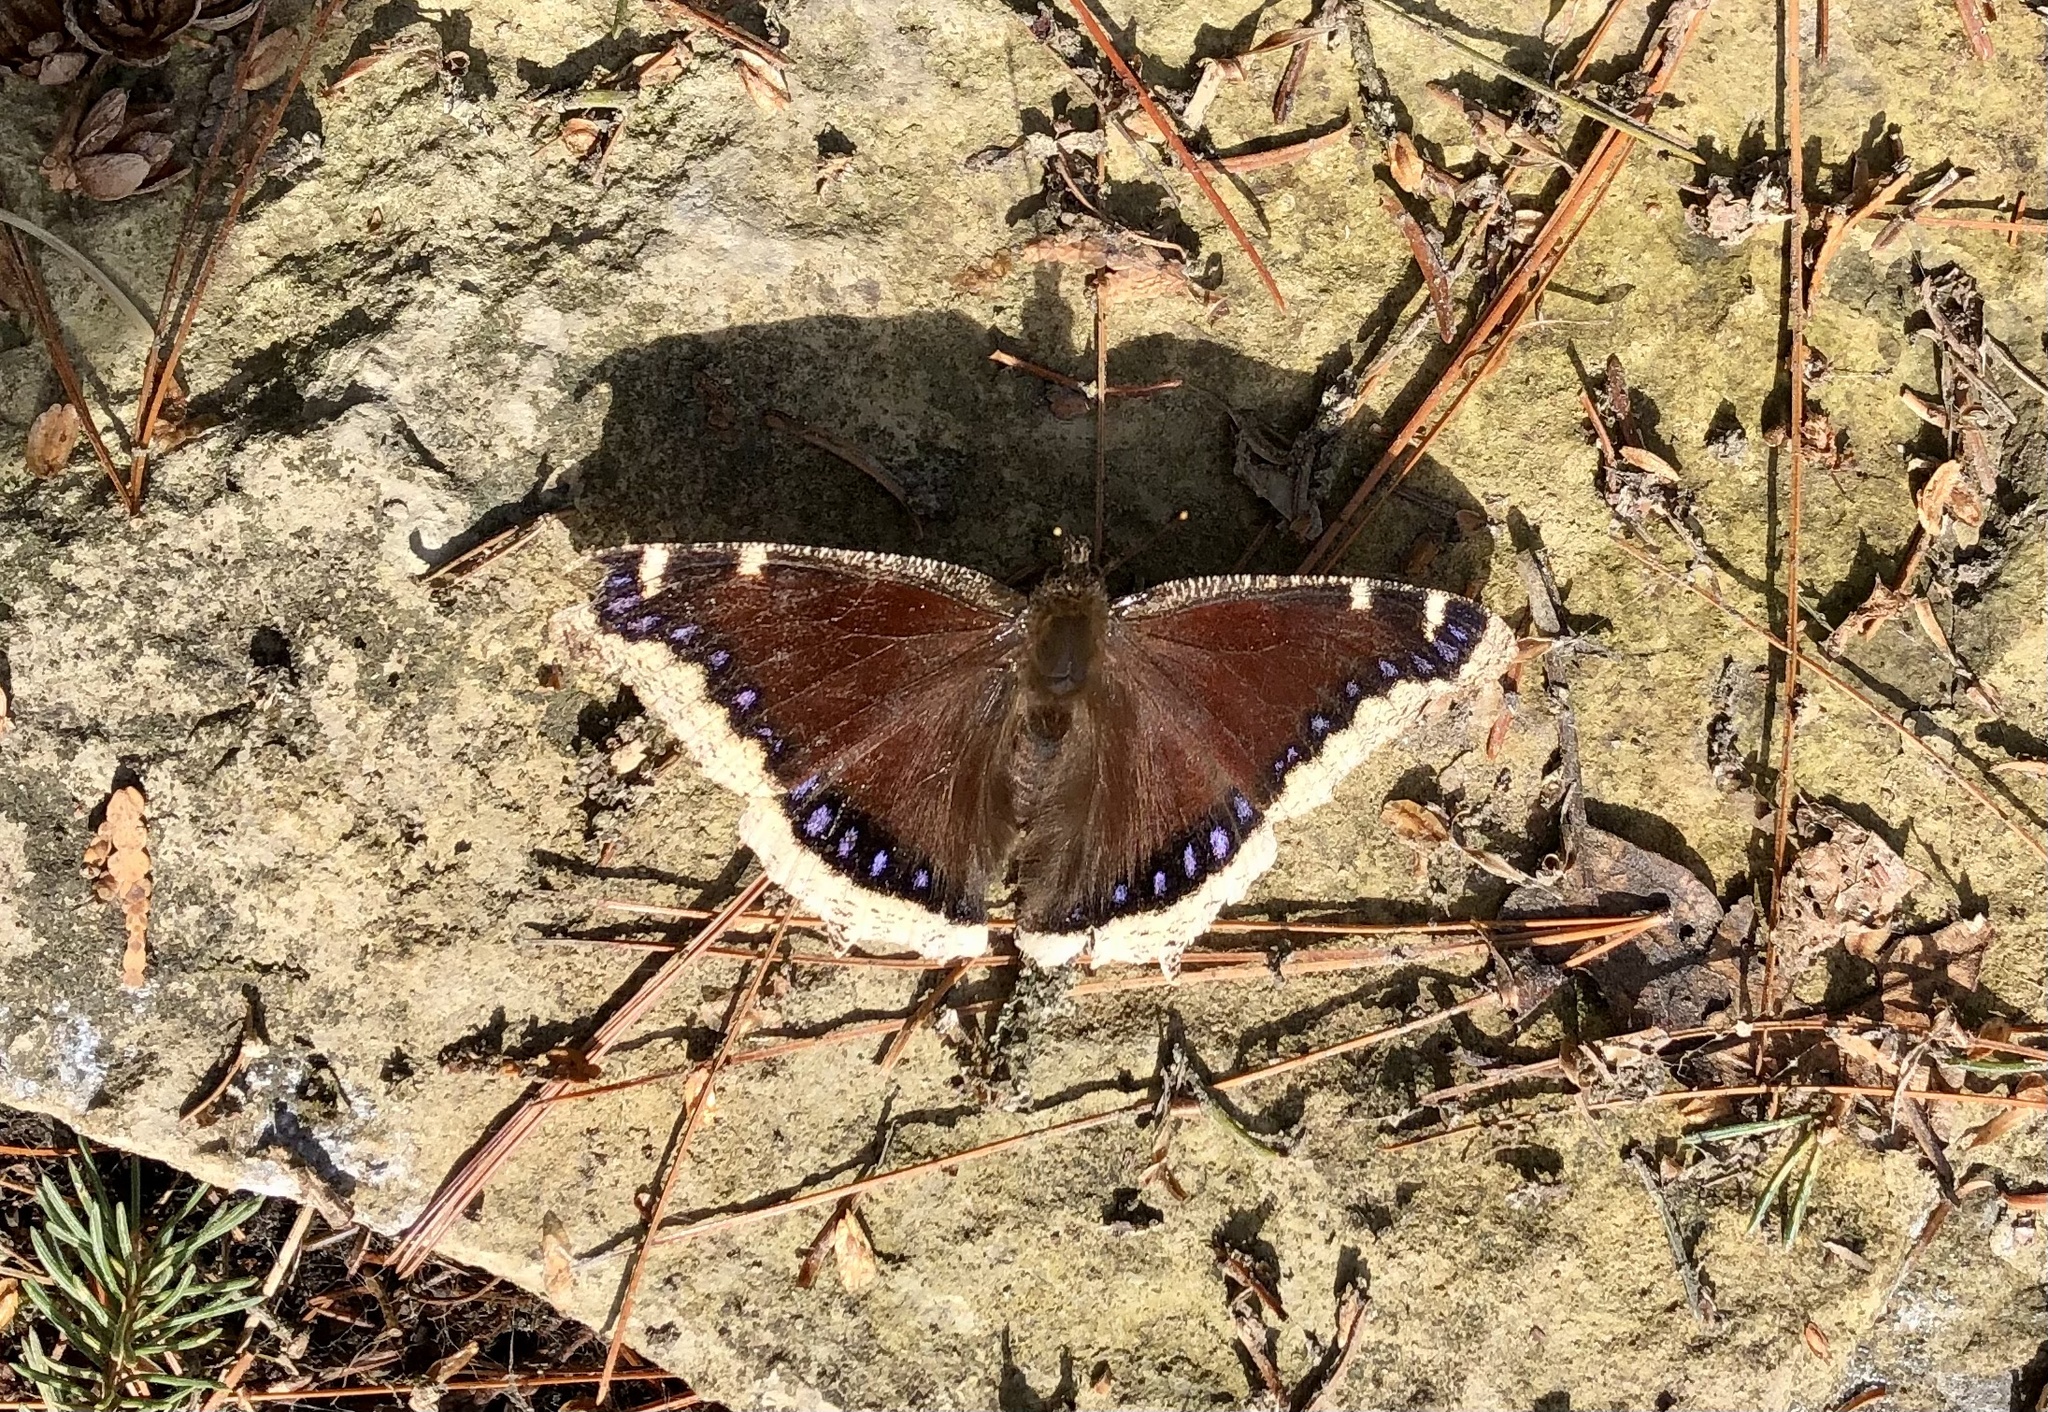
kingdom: Animalia
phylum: Arthropoda
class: Insecta
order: Lepidoptera
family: Nymphalidae
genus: Nymphalis
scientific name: Nymphalis antiopa
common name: Camberwell beauty
